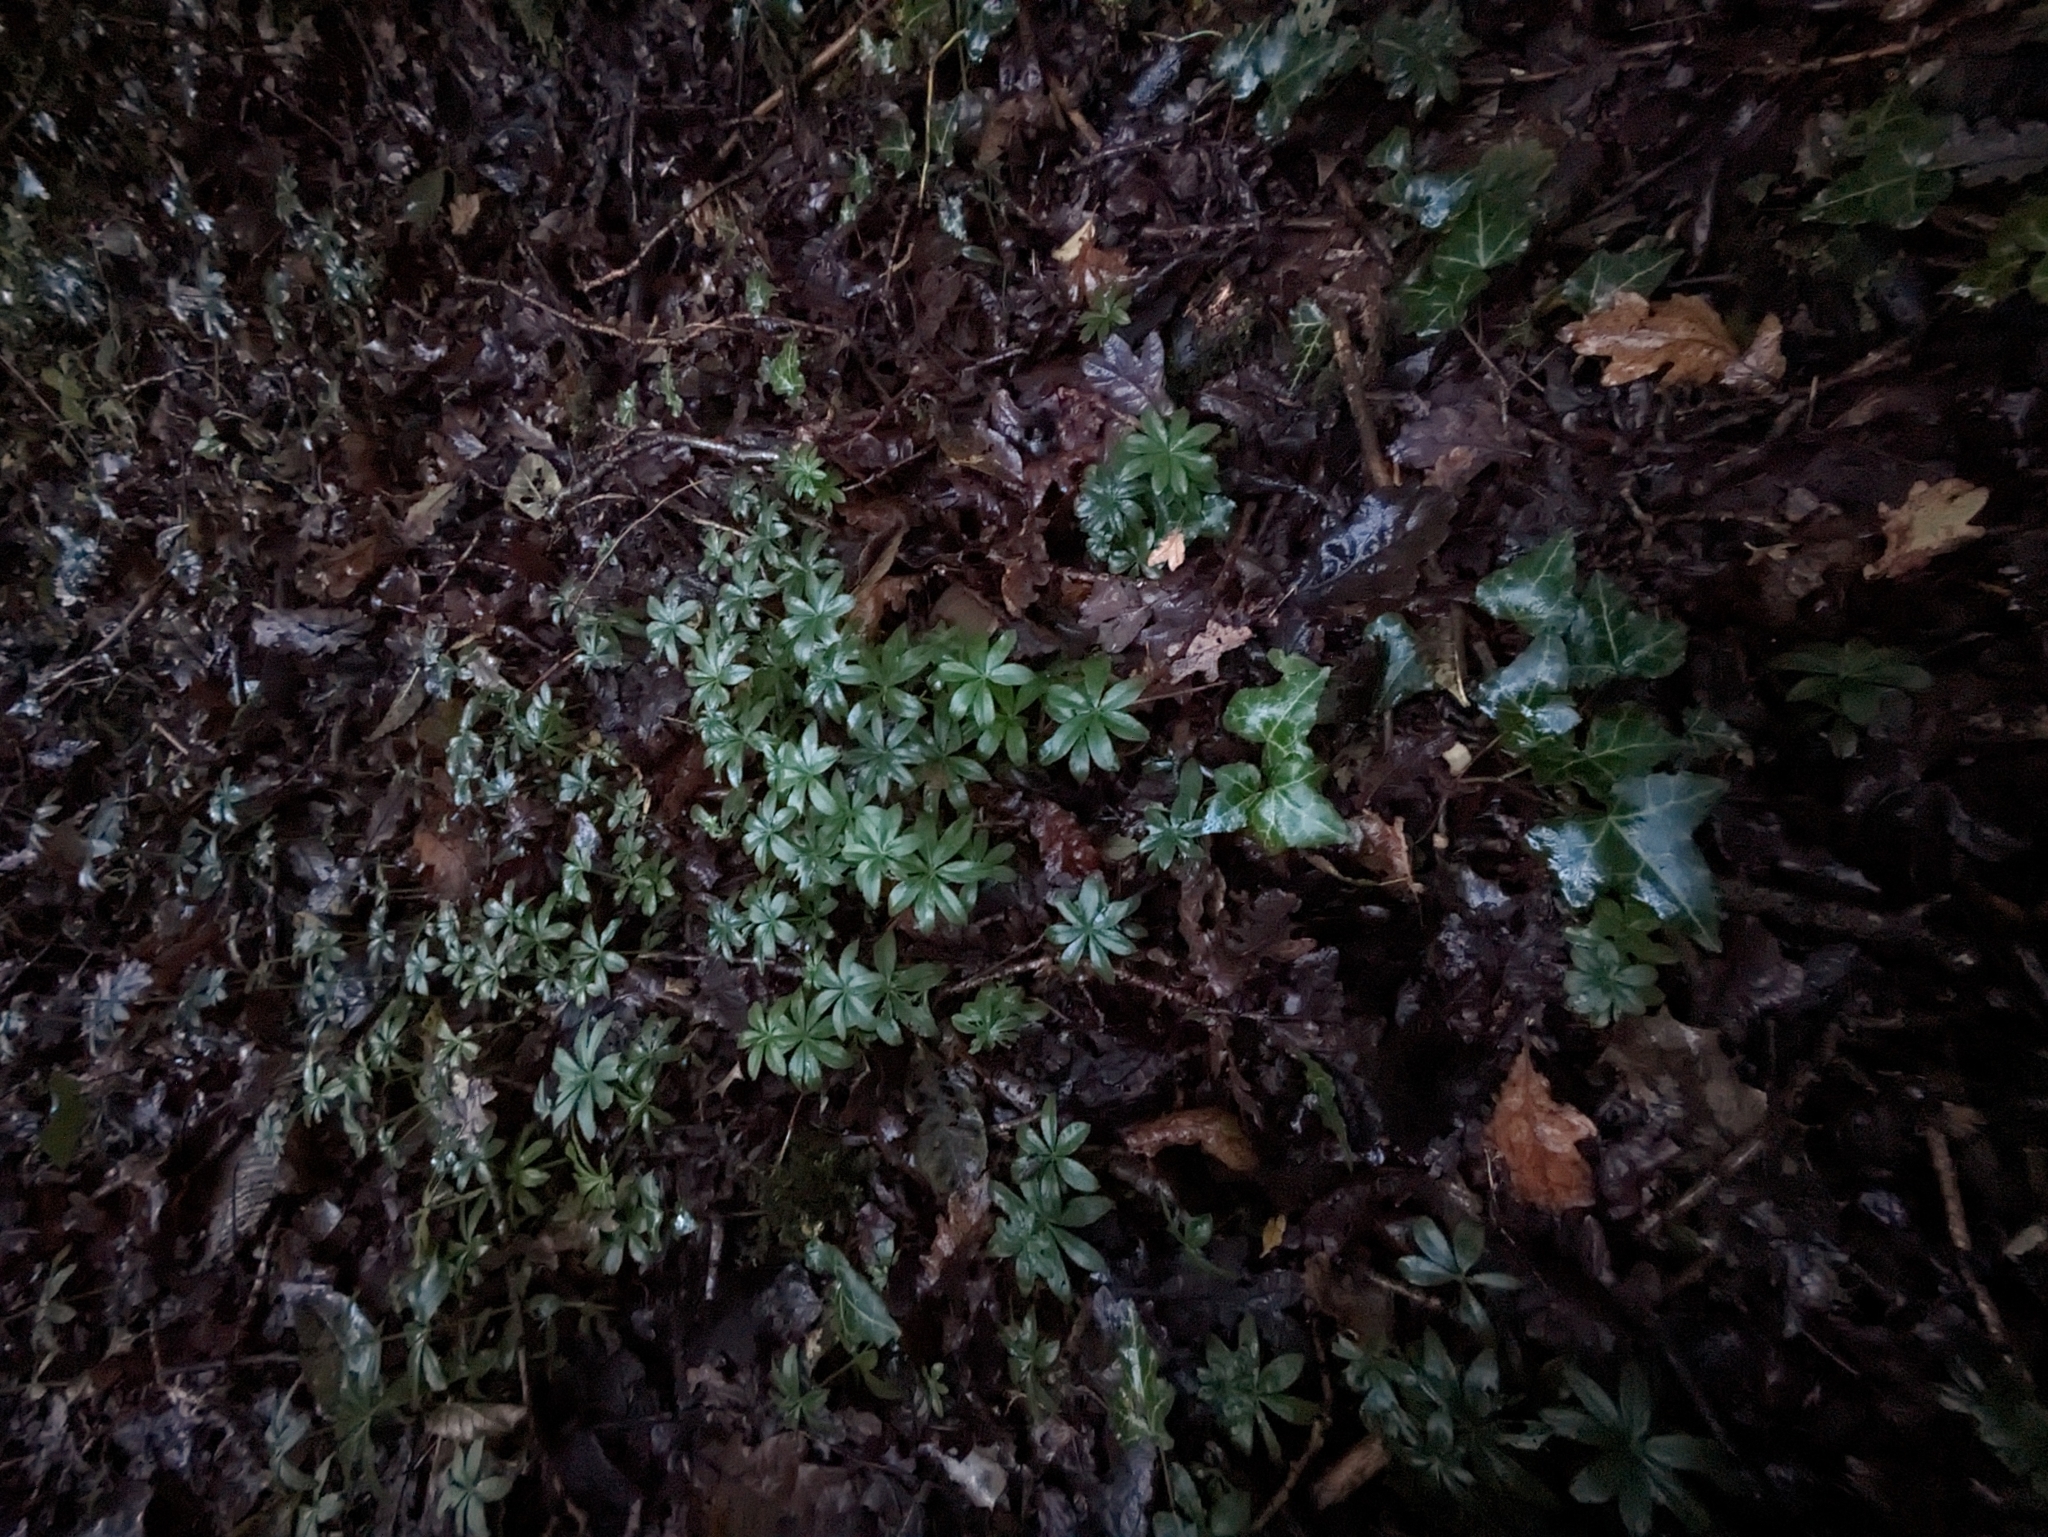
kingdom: Plantae
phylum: Tracheophyta
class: Magnoliopsida
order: Gentianales
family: Rubiaceae
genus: Galium
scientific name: Galium odoratum
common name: Sweet woodruff
